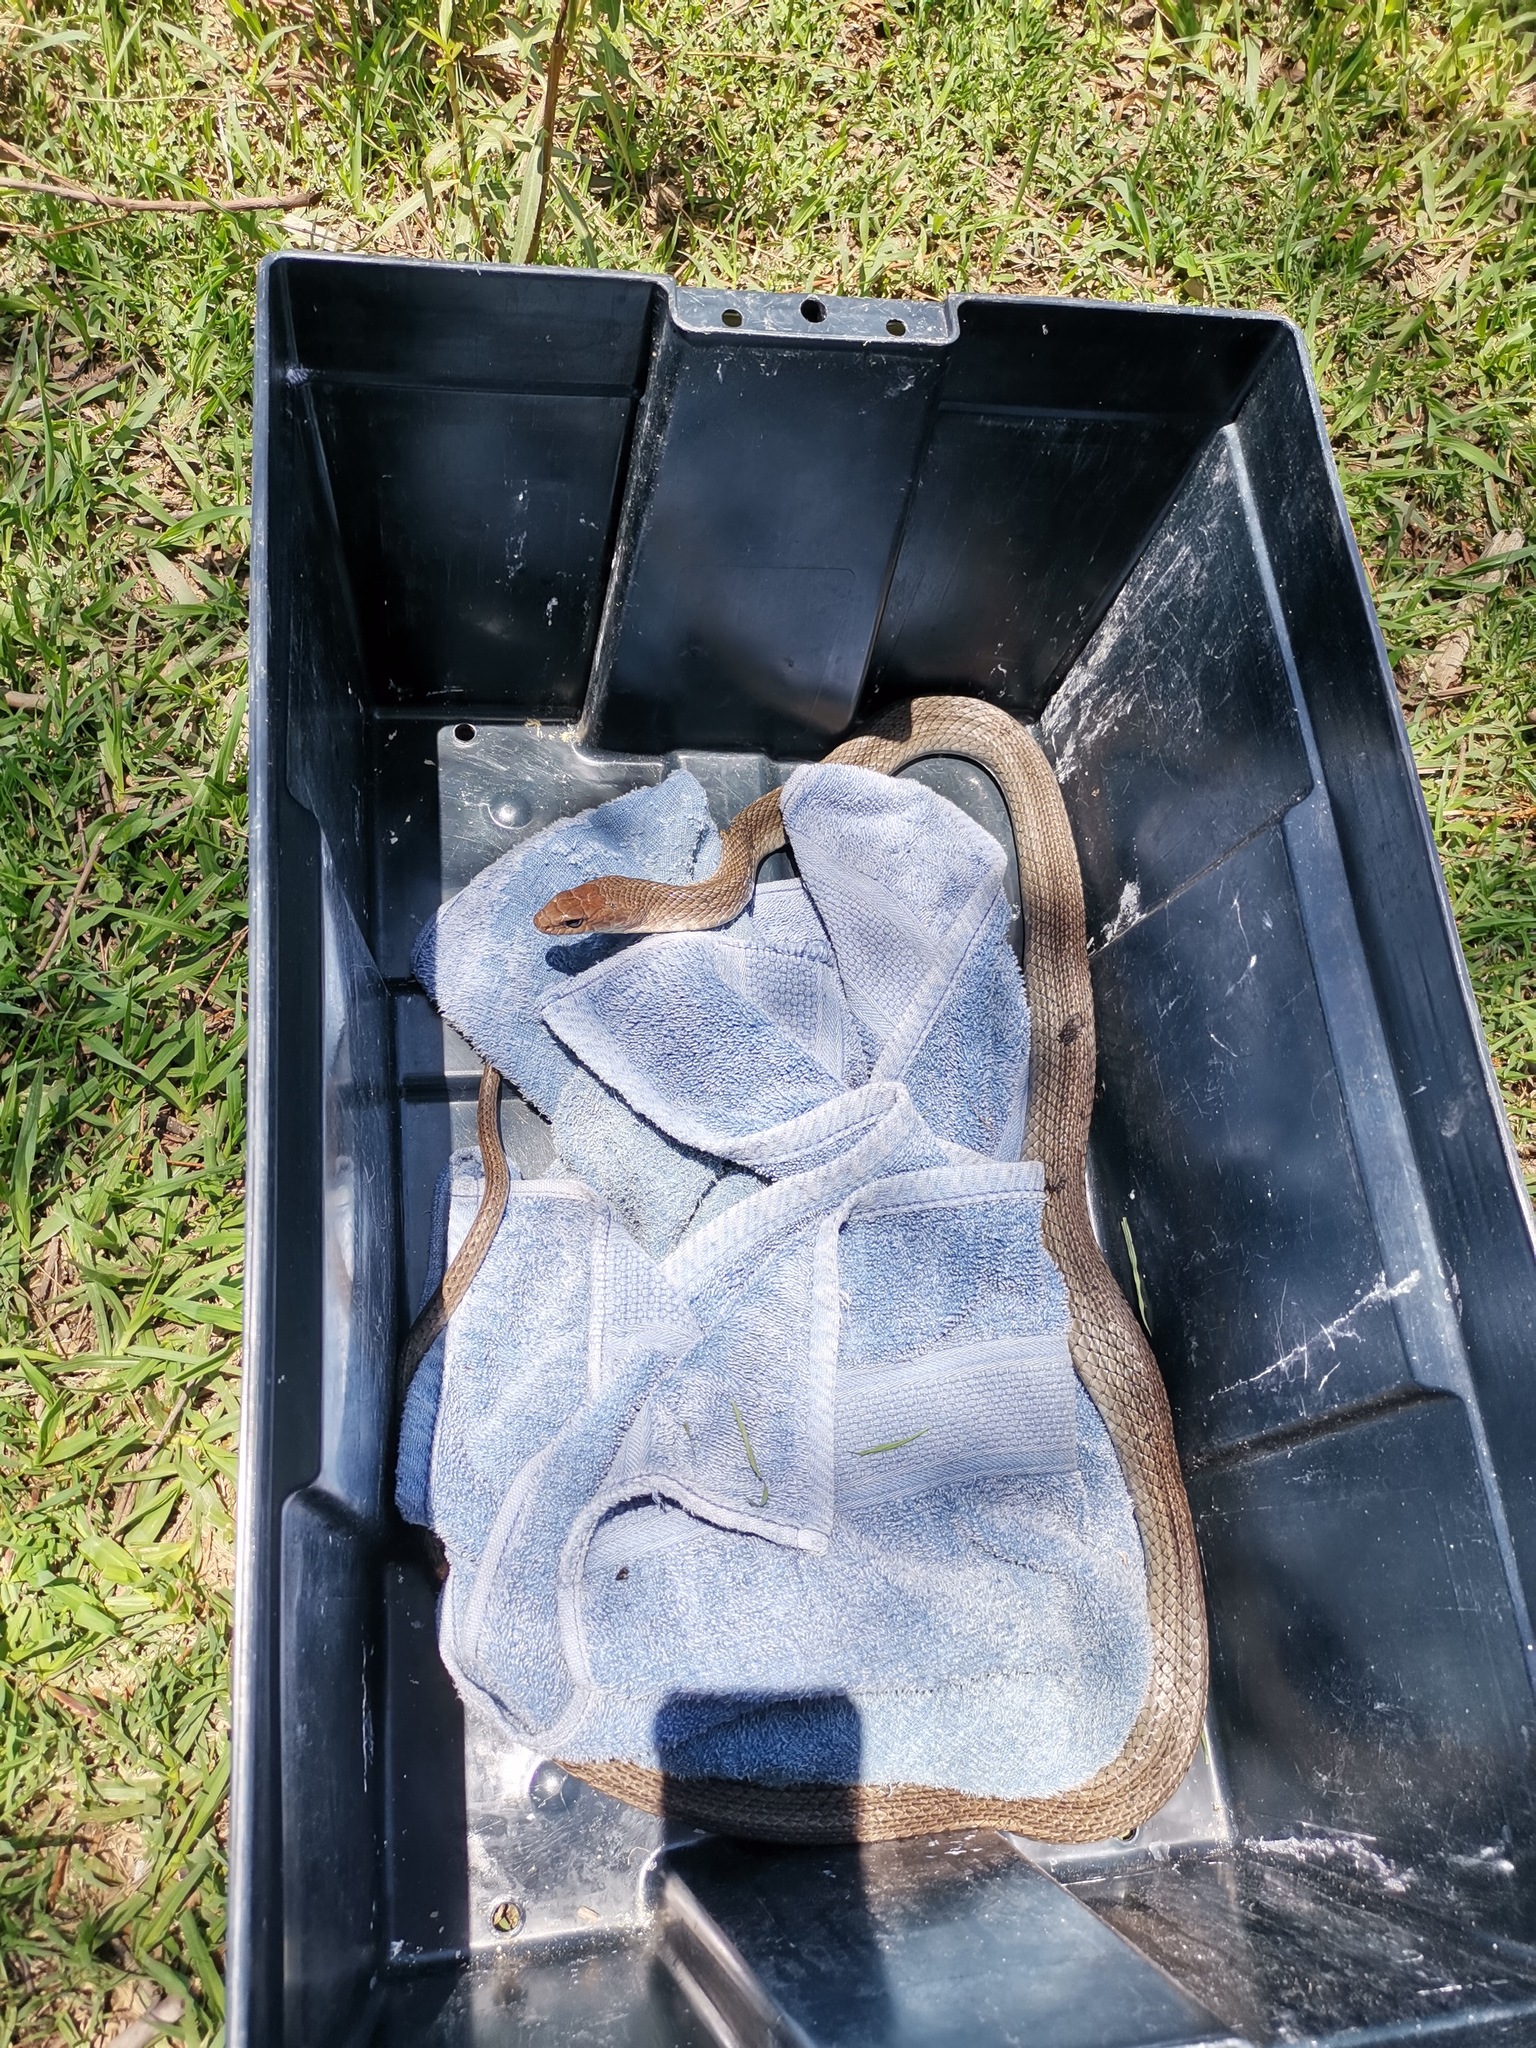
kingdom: Animalia
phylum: Chordata
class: Squamata
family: Colubridae
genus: Masticophis
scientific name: Masticophis mentovarius
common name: Neotropical whip snake
